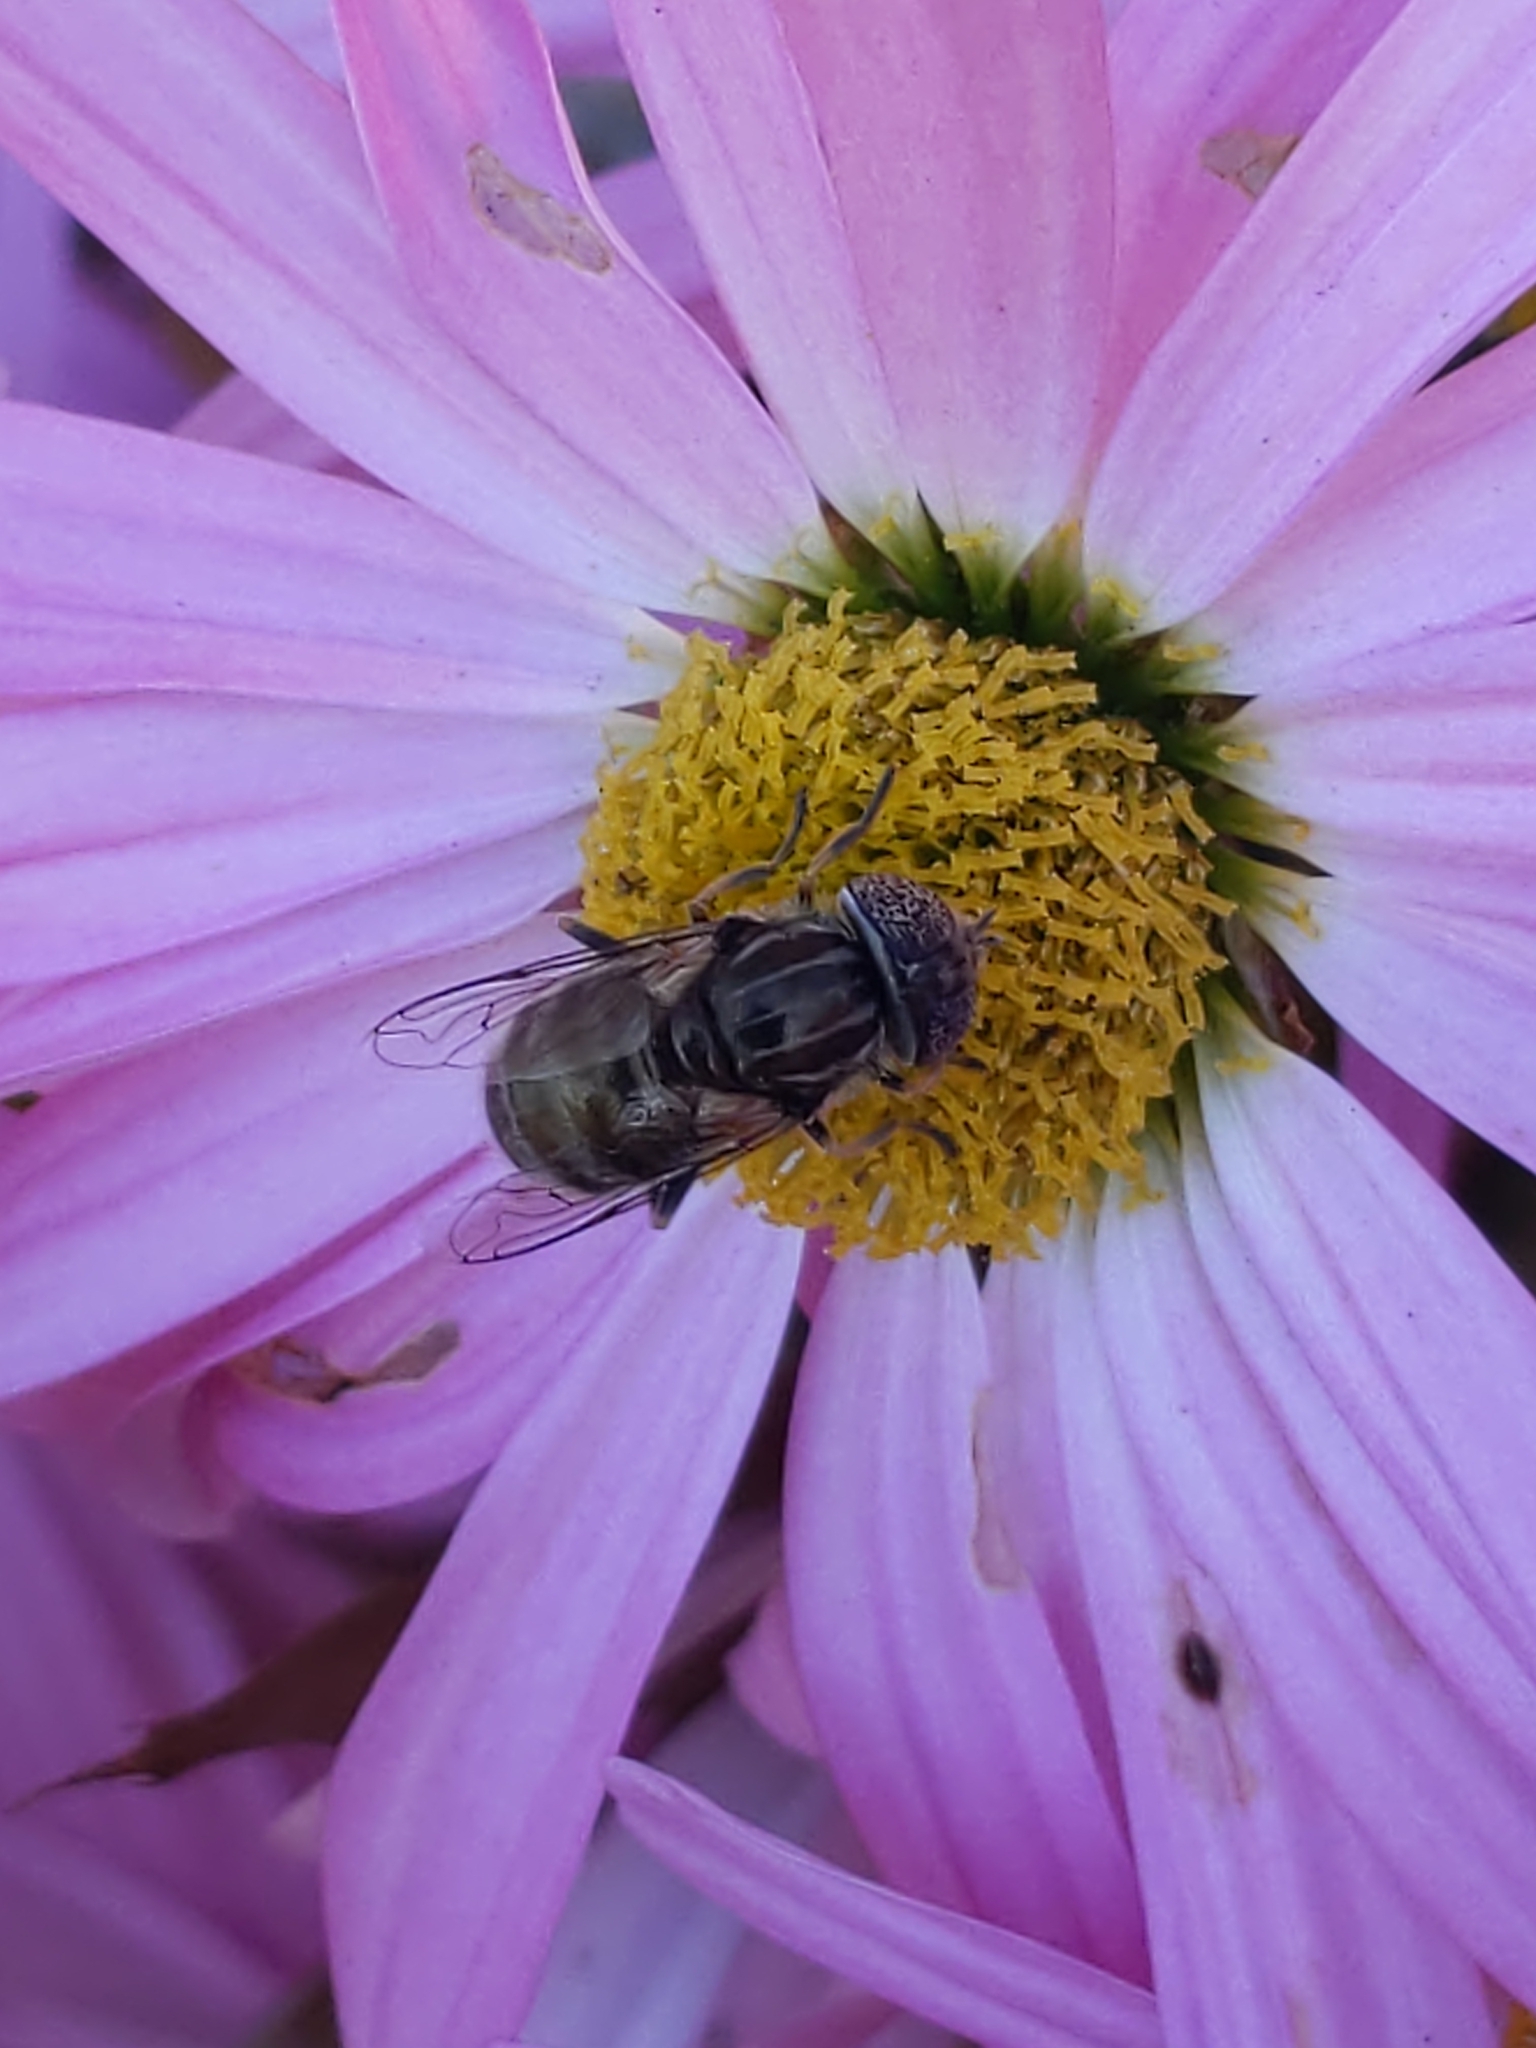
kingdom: Animalia
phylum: Arthropoda
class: Insecta
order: Diptera
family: Syrphidae
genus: Eristalinus
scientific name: Eristalinus aeneus
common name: Syrphid fly
